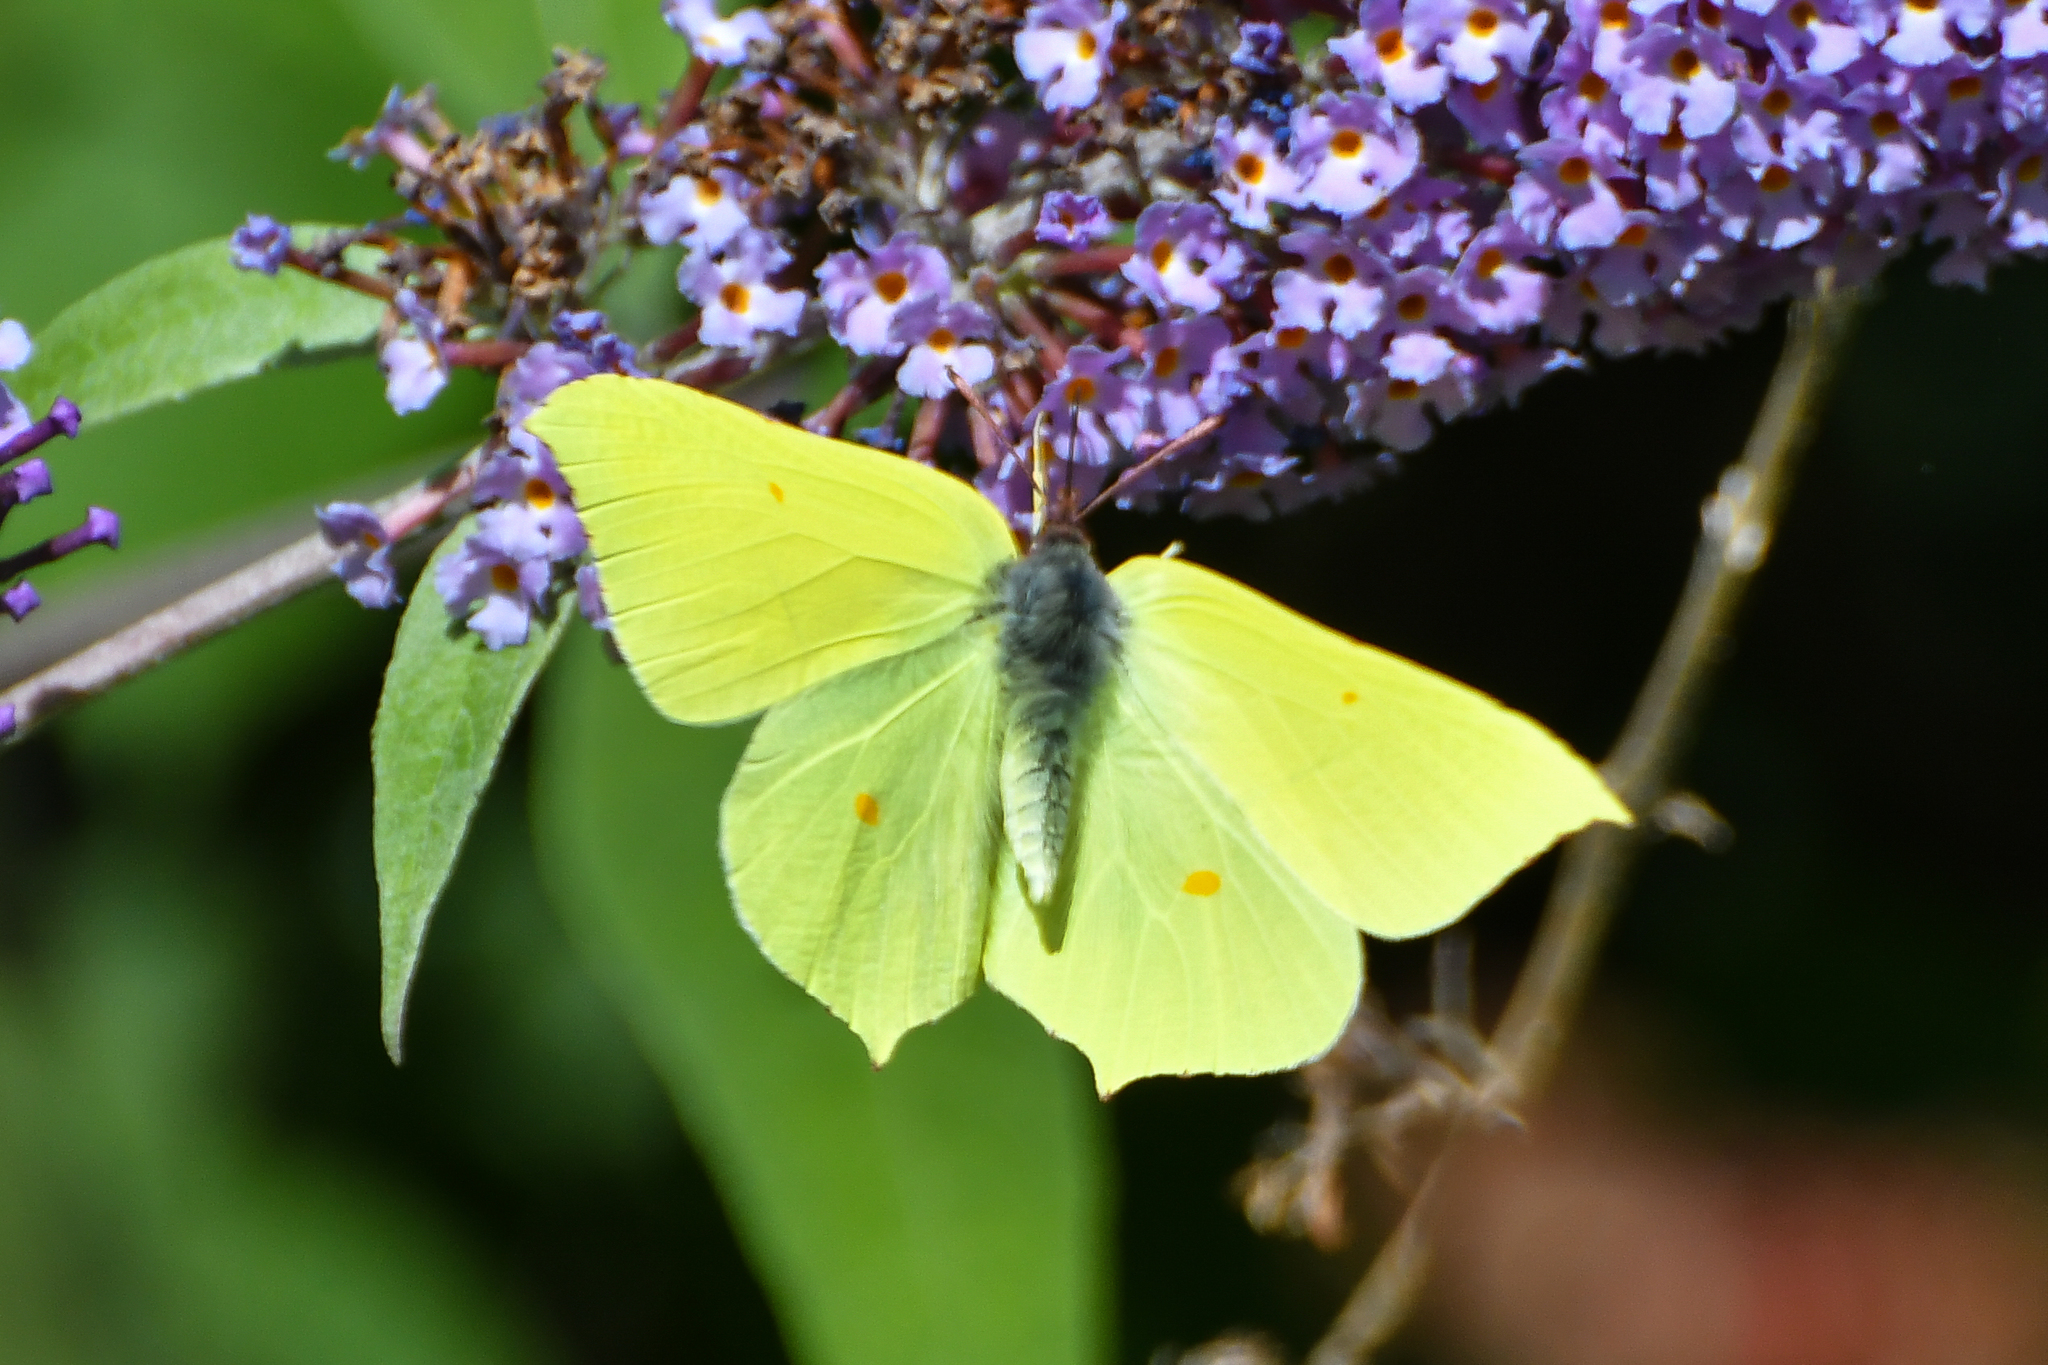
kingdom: Animalia
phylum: Arthropoda
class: Insecta
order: Lepidoptera
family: Pieridae
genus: Gonepteryx
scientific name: Gonepteryx rhamni
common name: Brimstone
